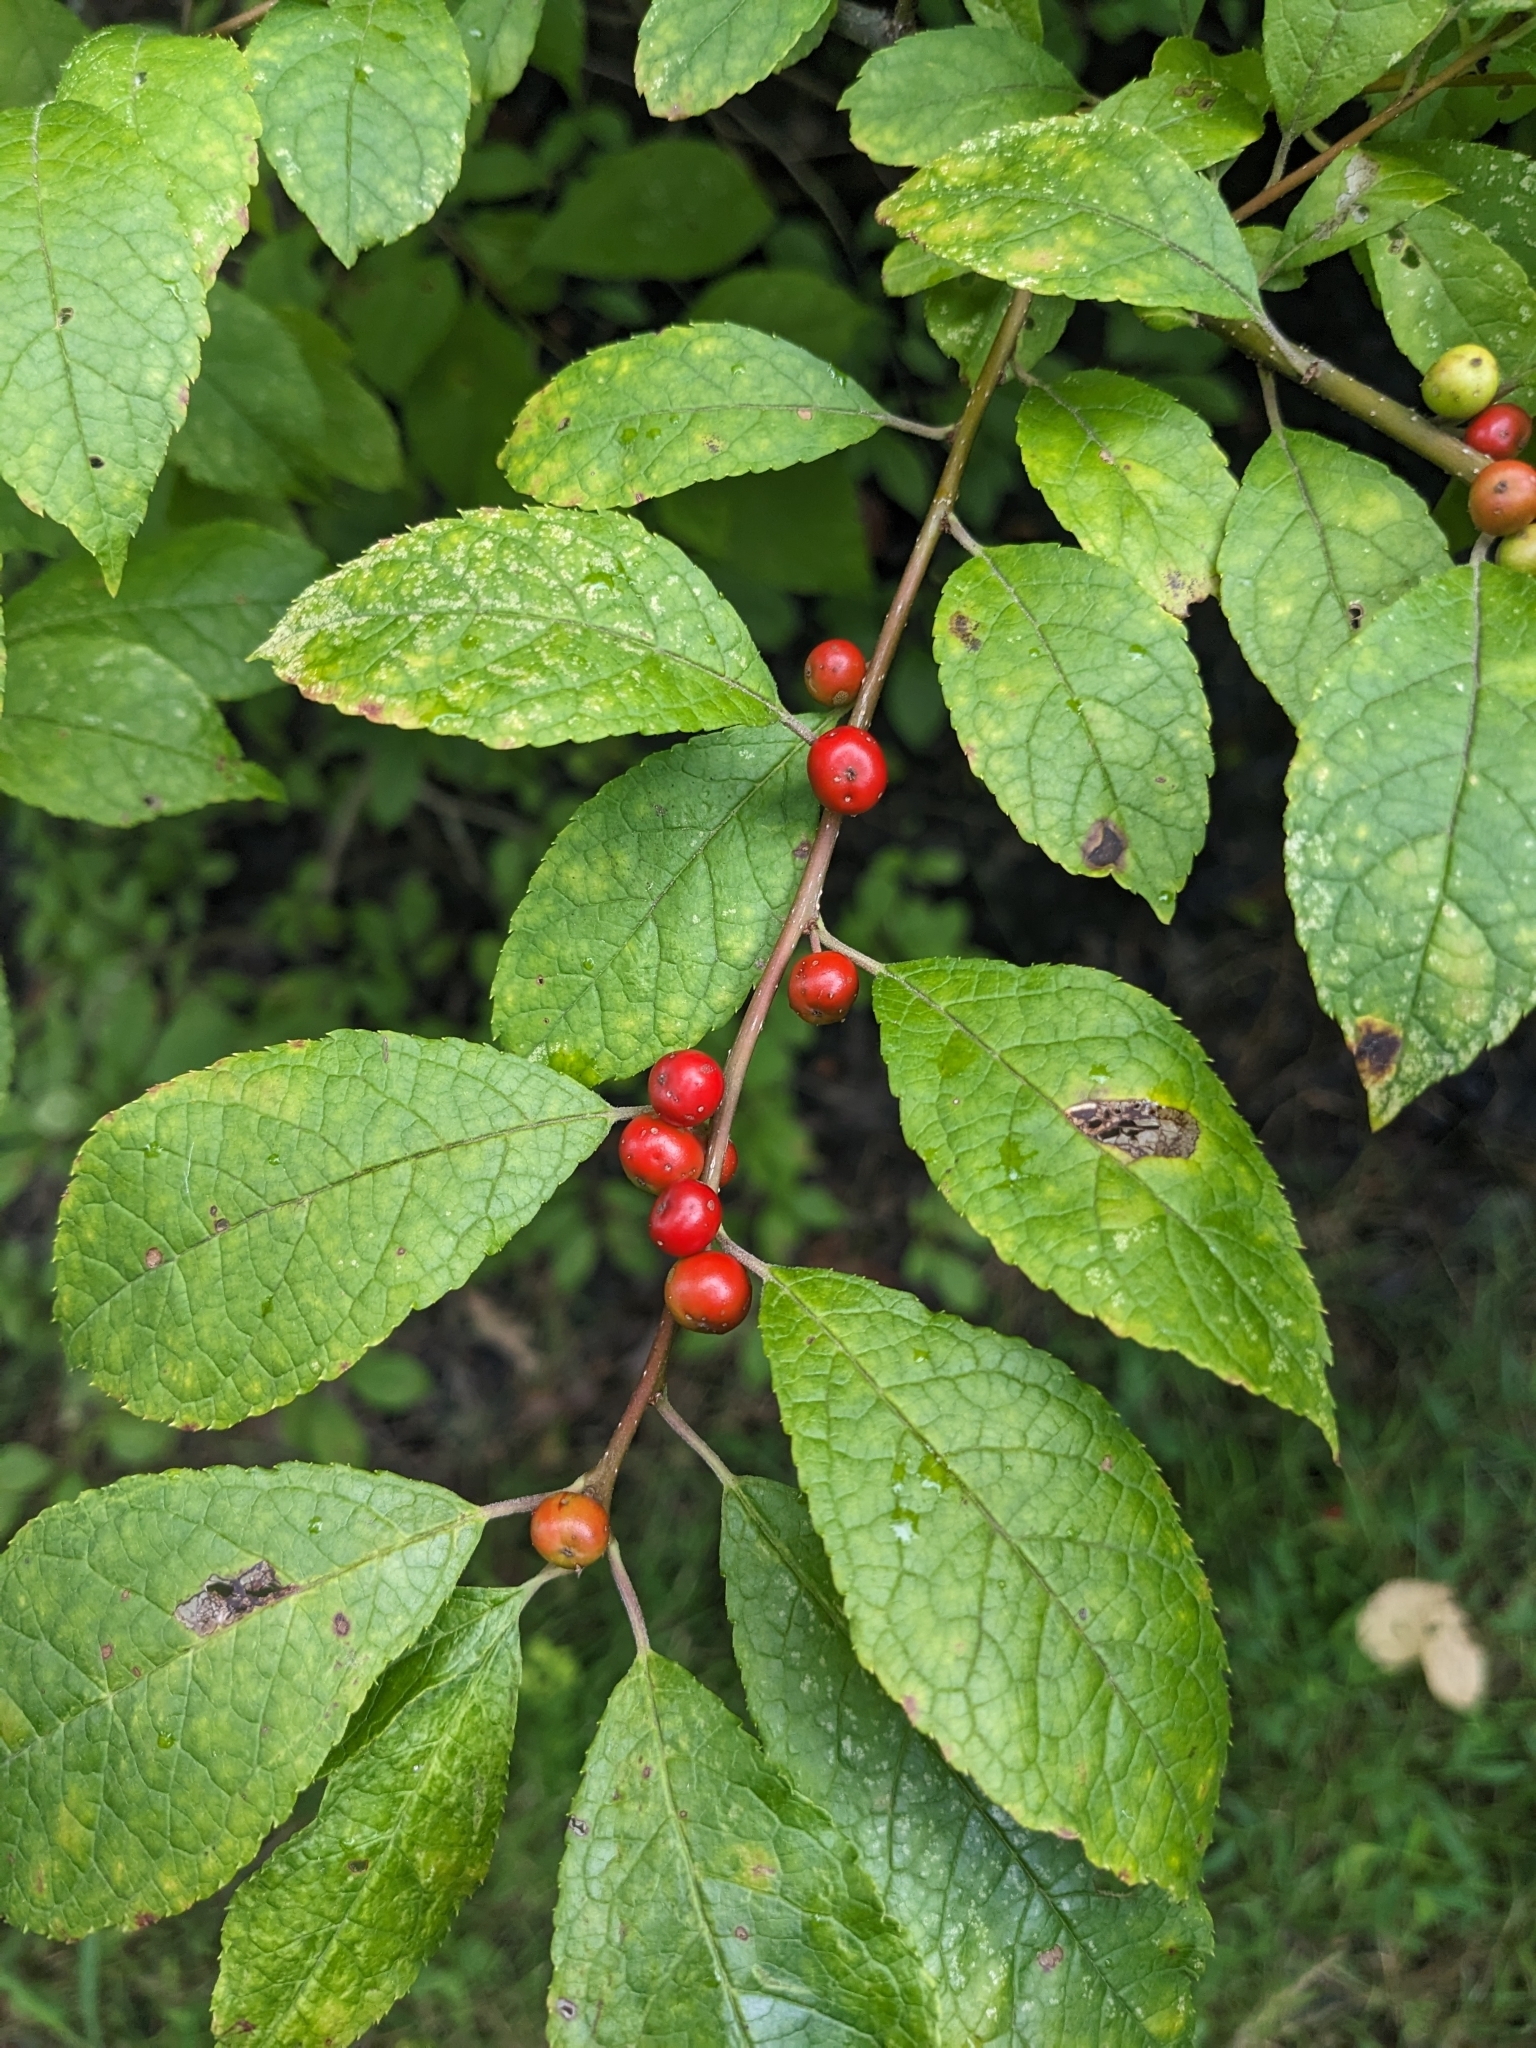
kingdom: Plantae
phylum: Tracheophyta
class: Magnoliopsida
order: Aquifoliales
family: Aquifoliaceae
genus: Ilex
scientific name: Ilex verticillata
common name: Virginia winterberry
